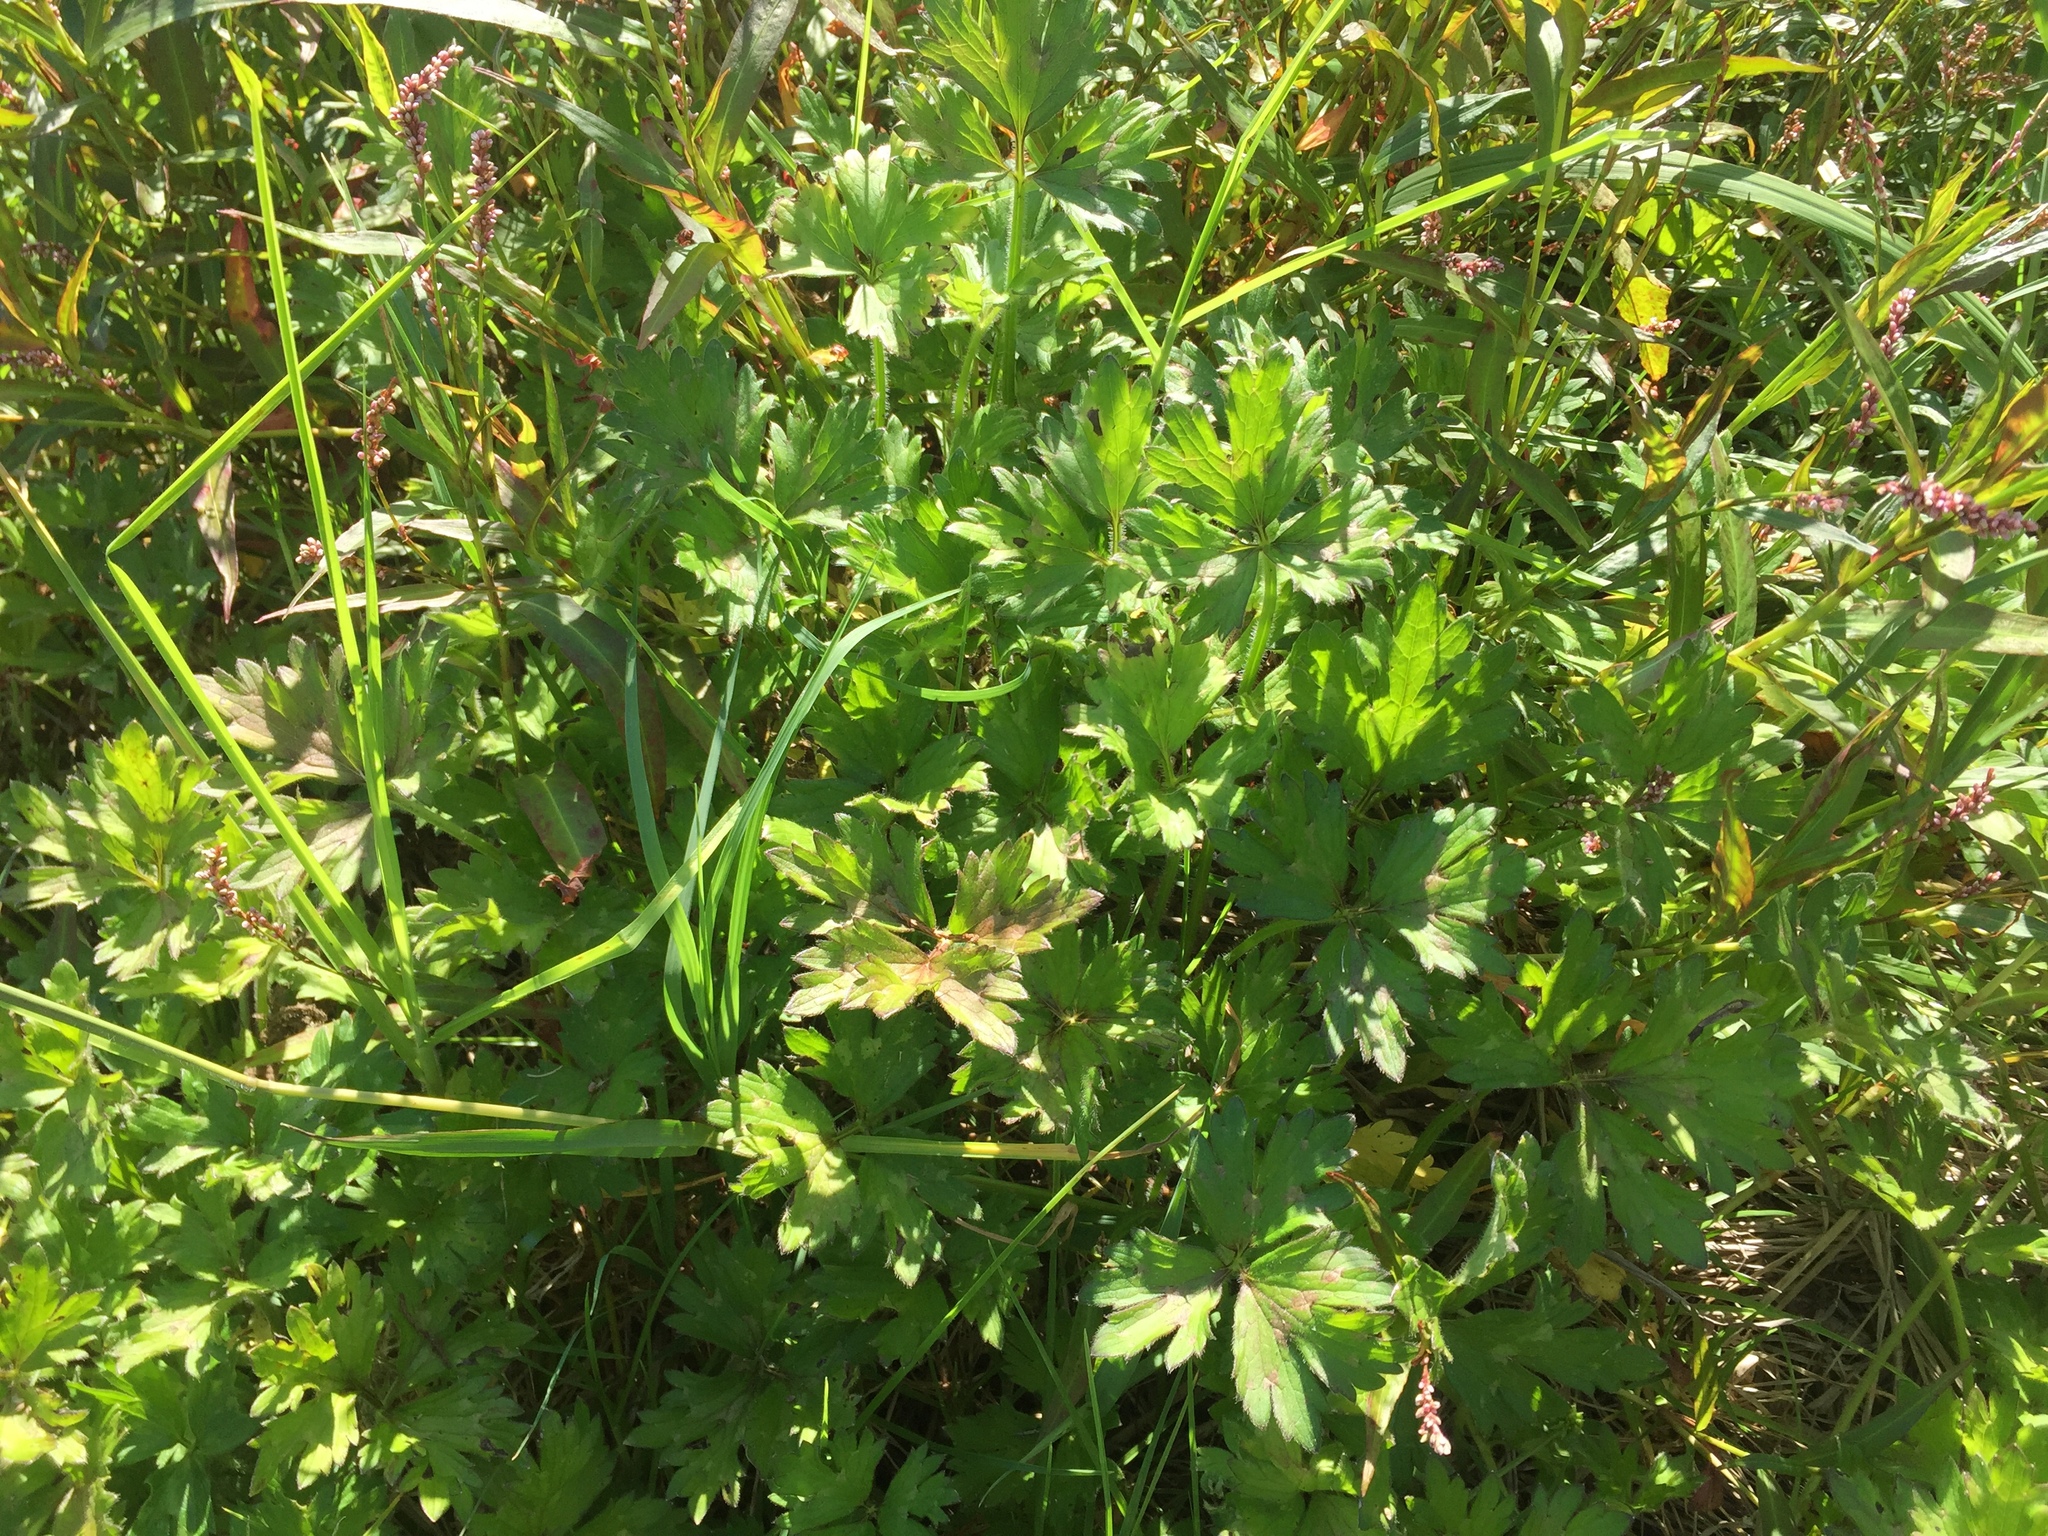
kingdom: Plantae
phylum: Tracheophyta
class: Magnoliopsida
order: Ranunculales
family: Ranunculaceae
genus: Ranunculus
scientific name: Ranunculus repens
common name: Creeping buttercup
